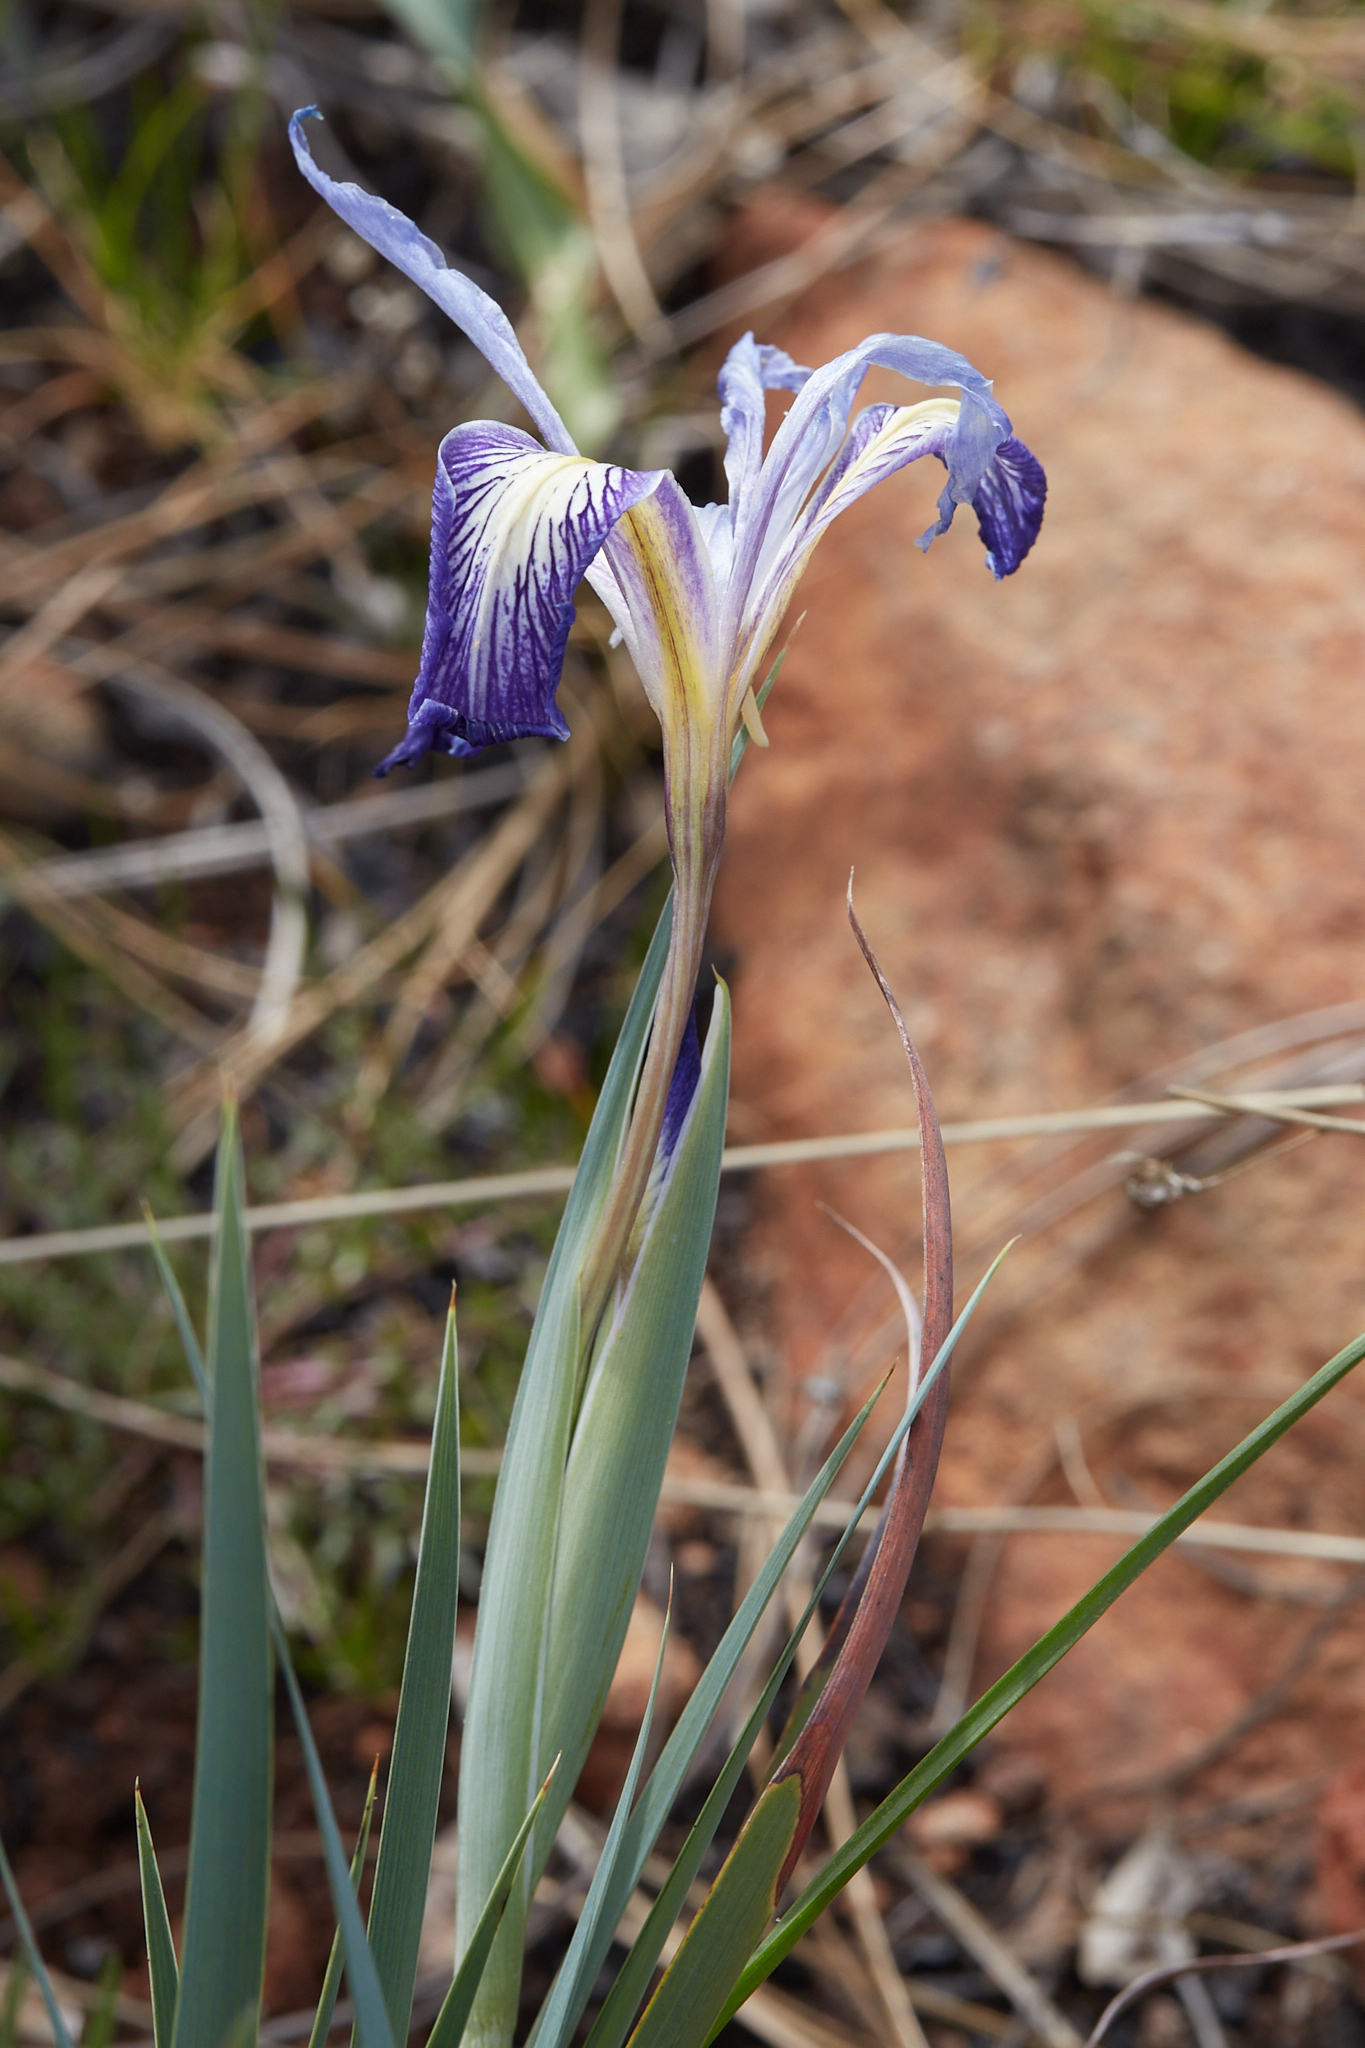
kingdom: Plantae
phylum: Tracheophyta
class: Liliopsida
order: Asparagales
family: Iridaceae
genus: Iris
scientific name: Iris macrosiphon
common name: Ground iris
